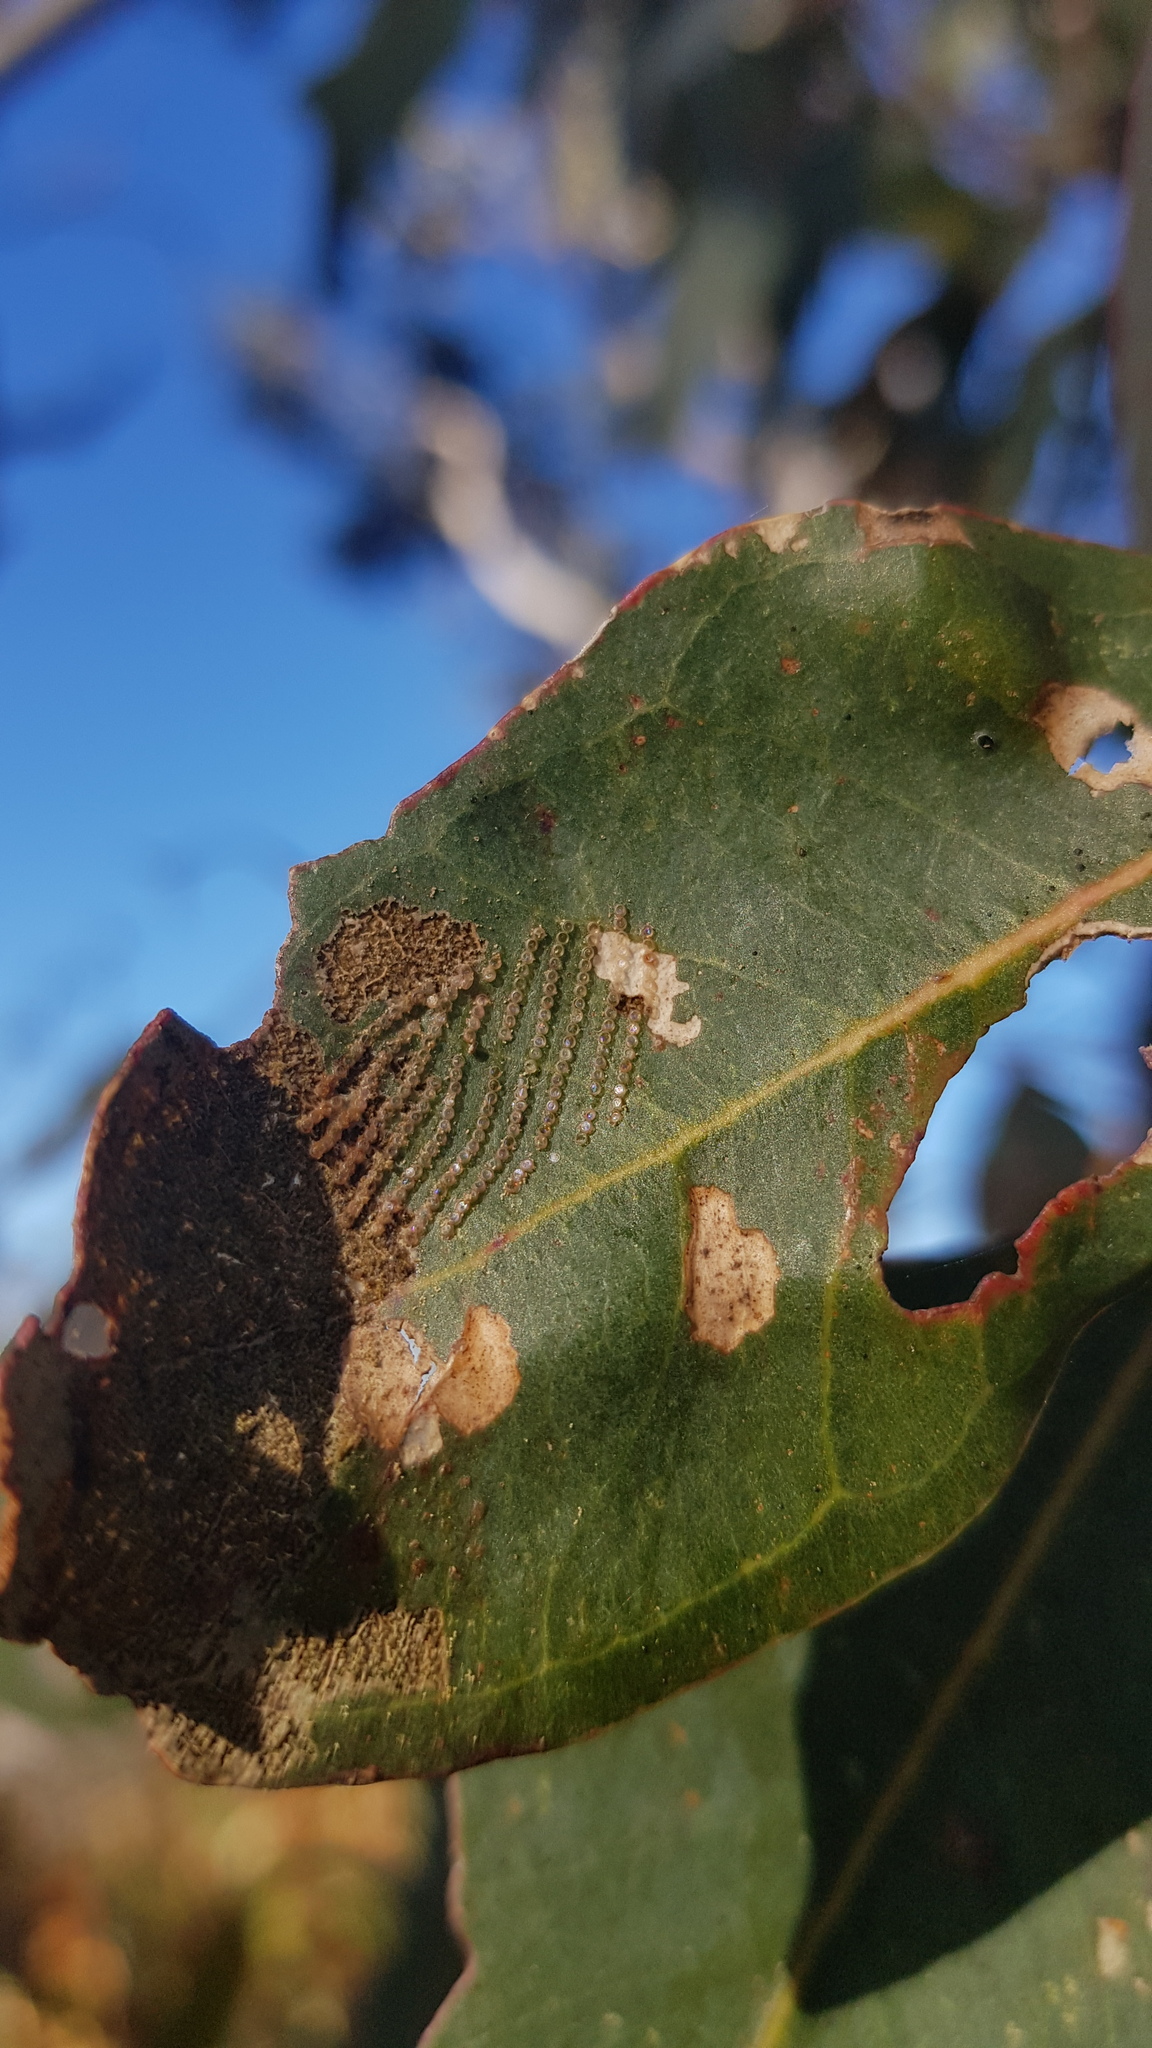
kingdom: Animalia
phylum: Arthropoda
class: Insecta
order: Lepidoptera
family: Nolidae
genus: Uraba
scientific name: Uraba lugens
